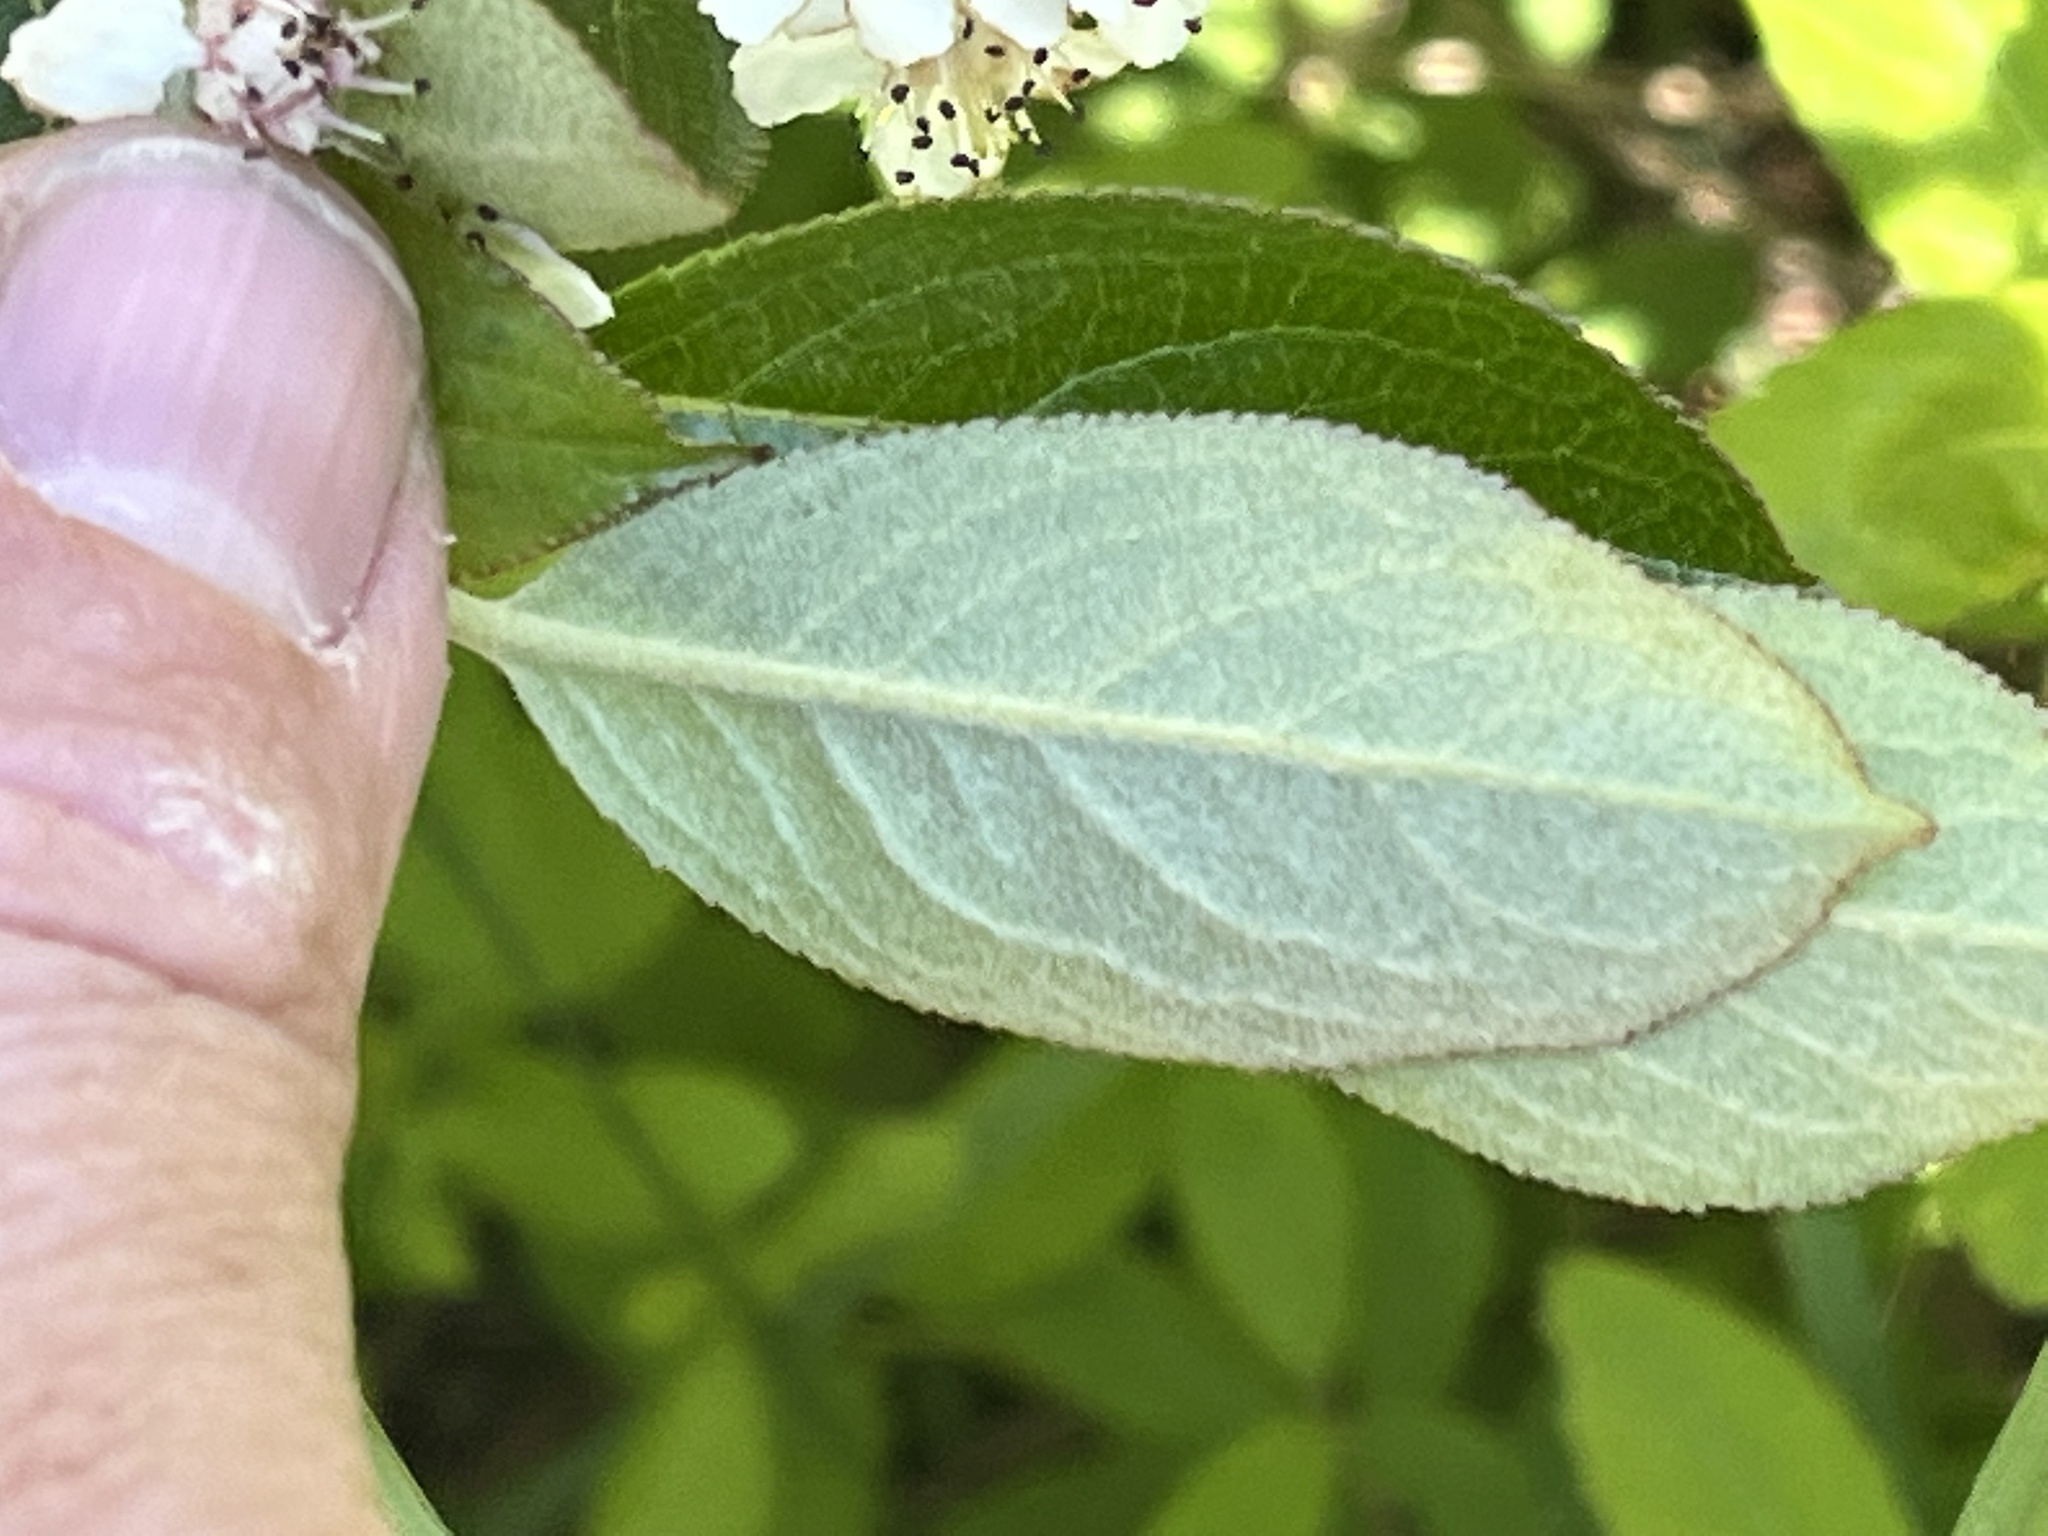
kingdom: Plantae
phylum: Tracheophyta
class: Magnoliopsida
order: Rosales
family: Rosaceae
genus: Aronia
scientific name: Aronia prunifolia
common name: Purple chokeberry
